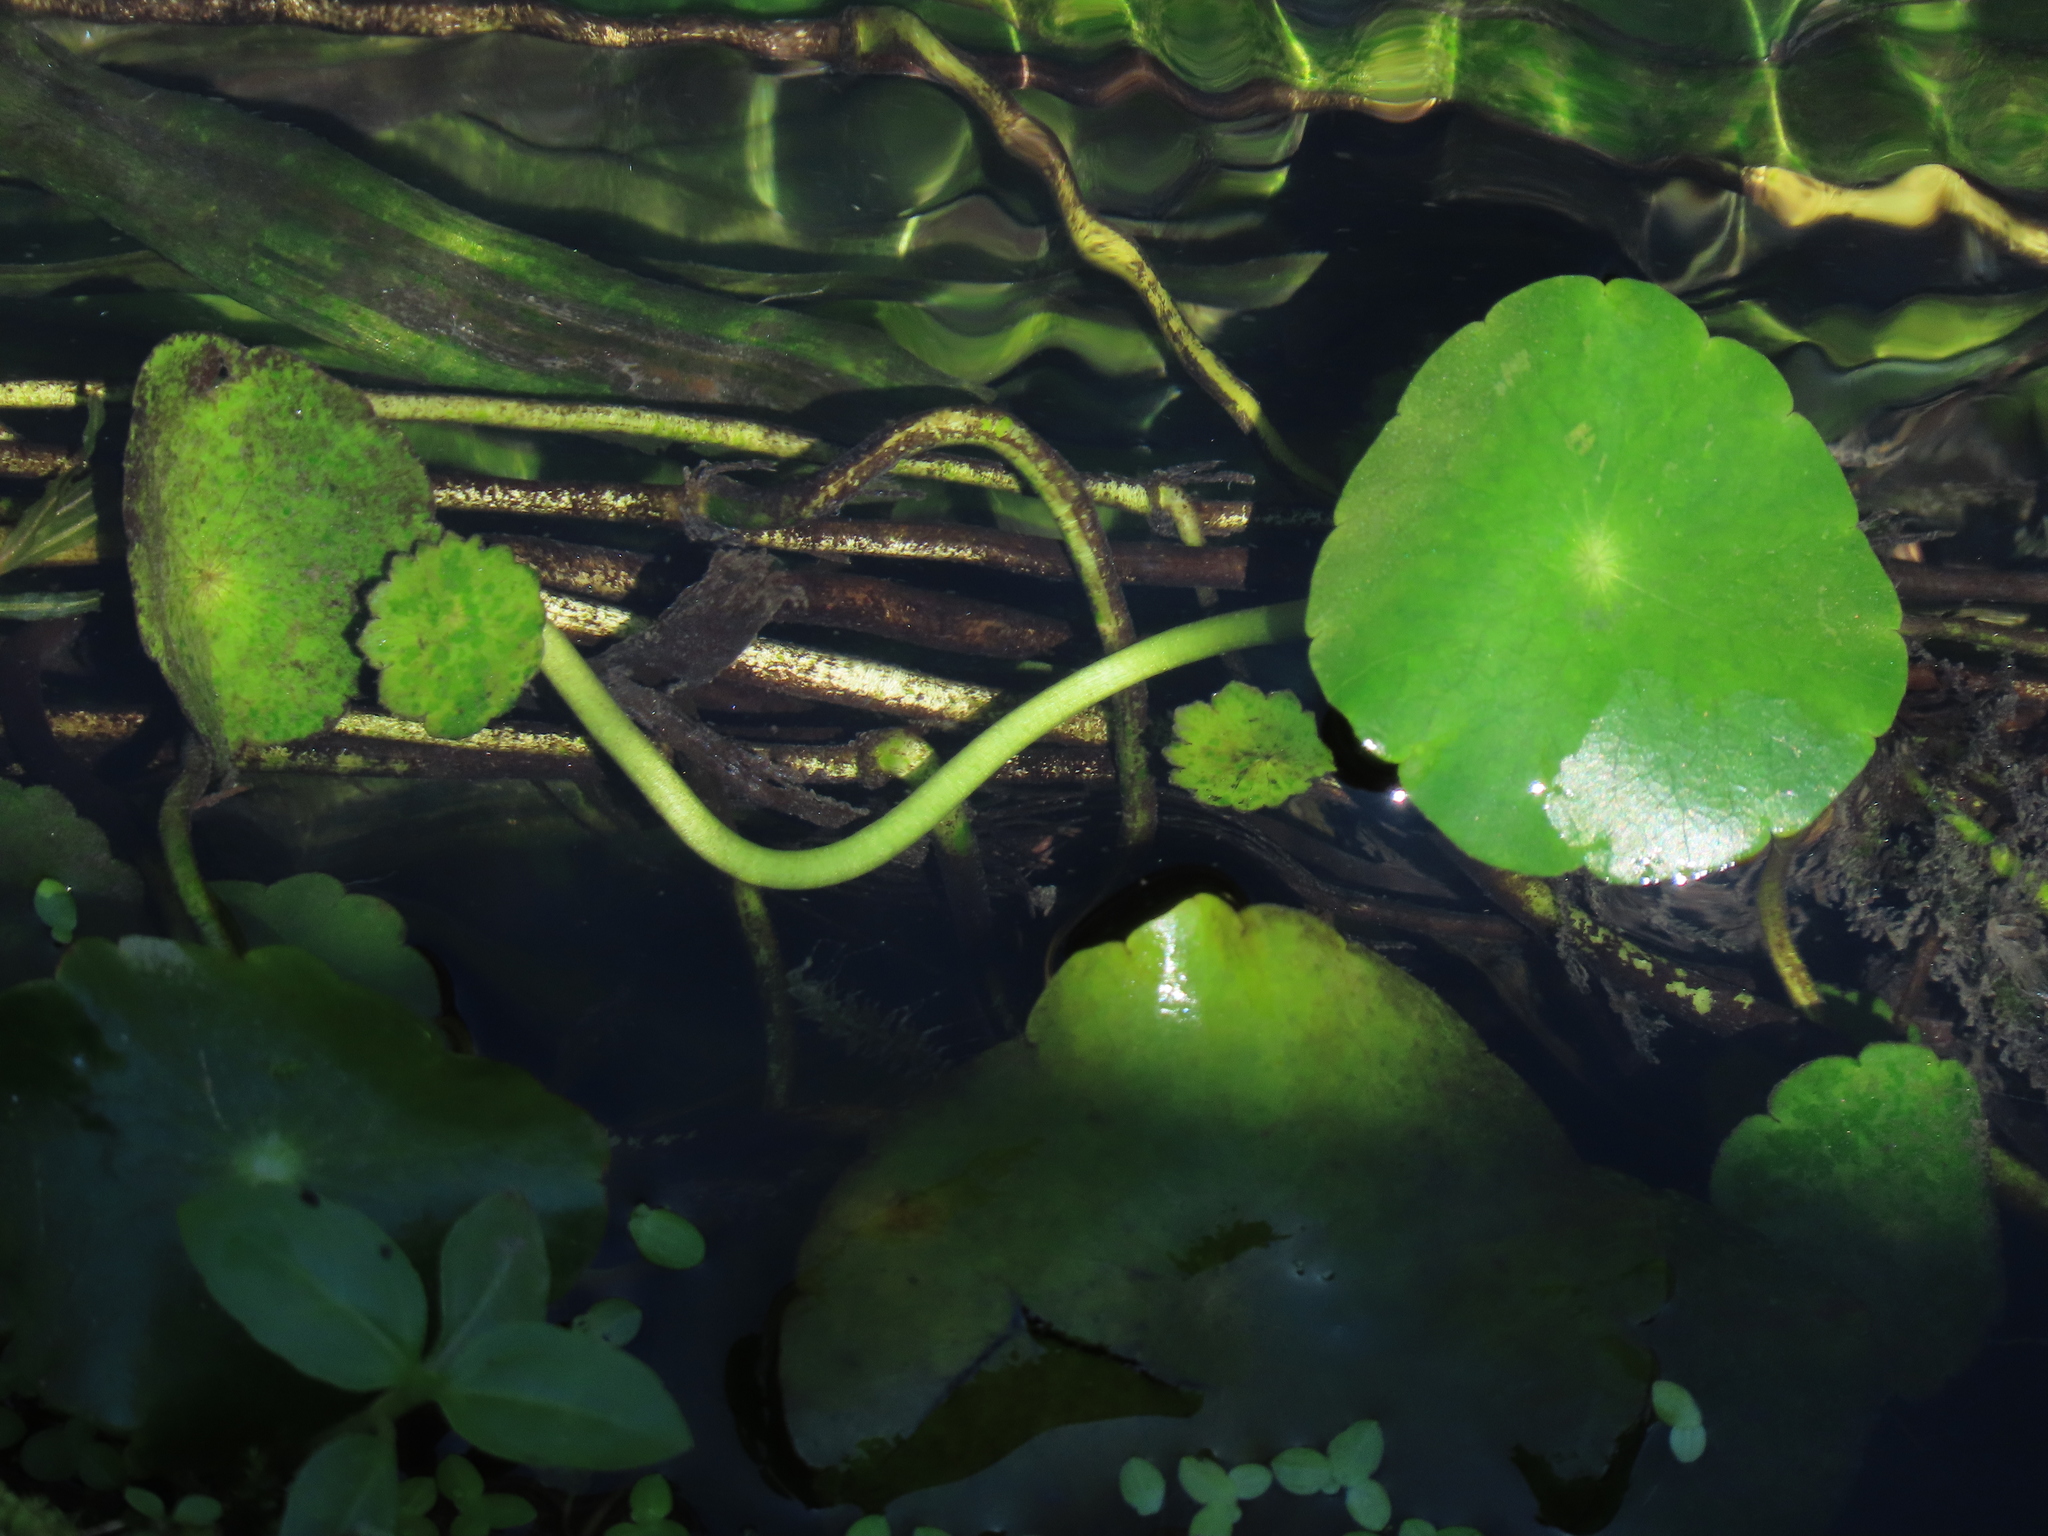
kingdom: Plantae
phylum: Tracheophyta
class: Magnoliopsida
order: Apiales
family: Araliaceae
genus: Hydrocotyle
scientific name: Hydrocotyle verticillata
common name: Whorled marshpennywort
